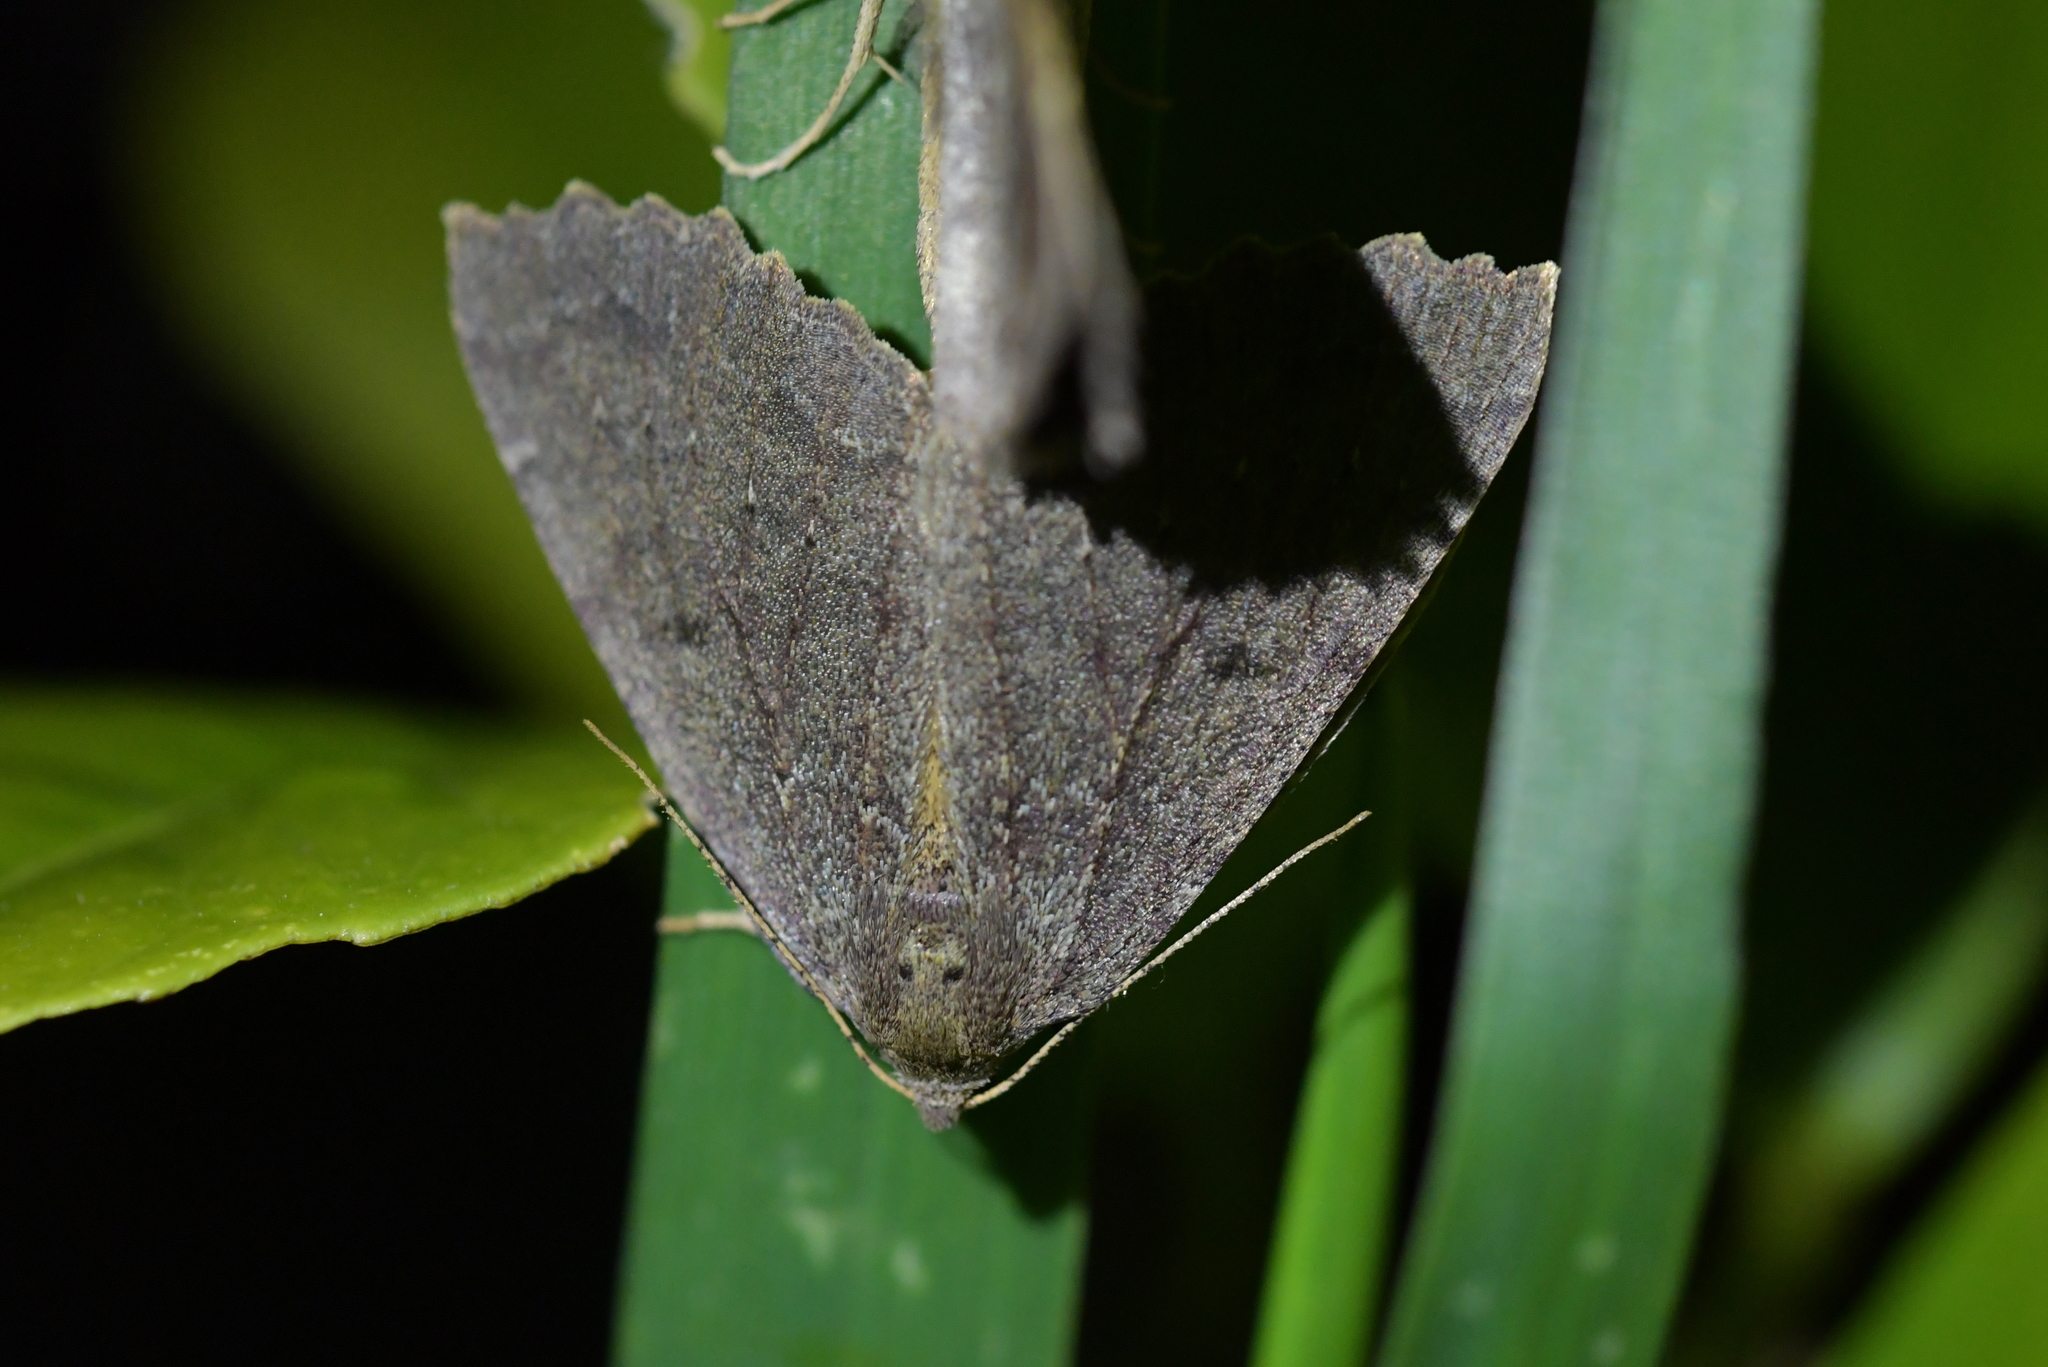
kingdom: Animalia
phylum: Arthropoda
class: Insecta
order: Lepidoptera
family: Geometridae
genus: Cleora
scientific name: Cleora scriptaria
